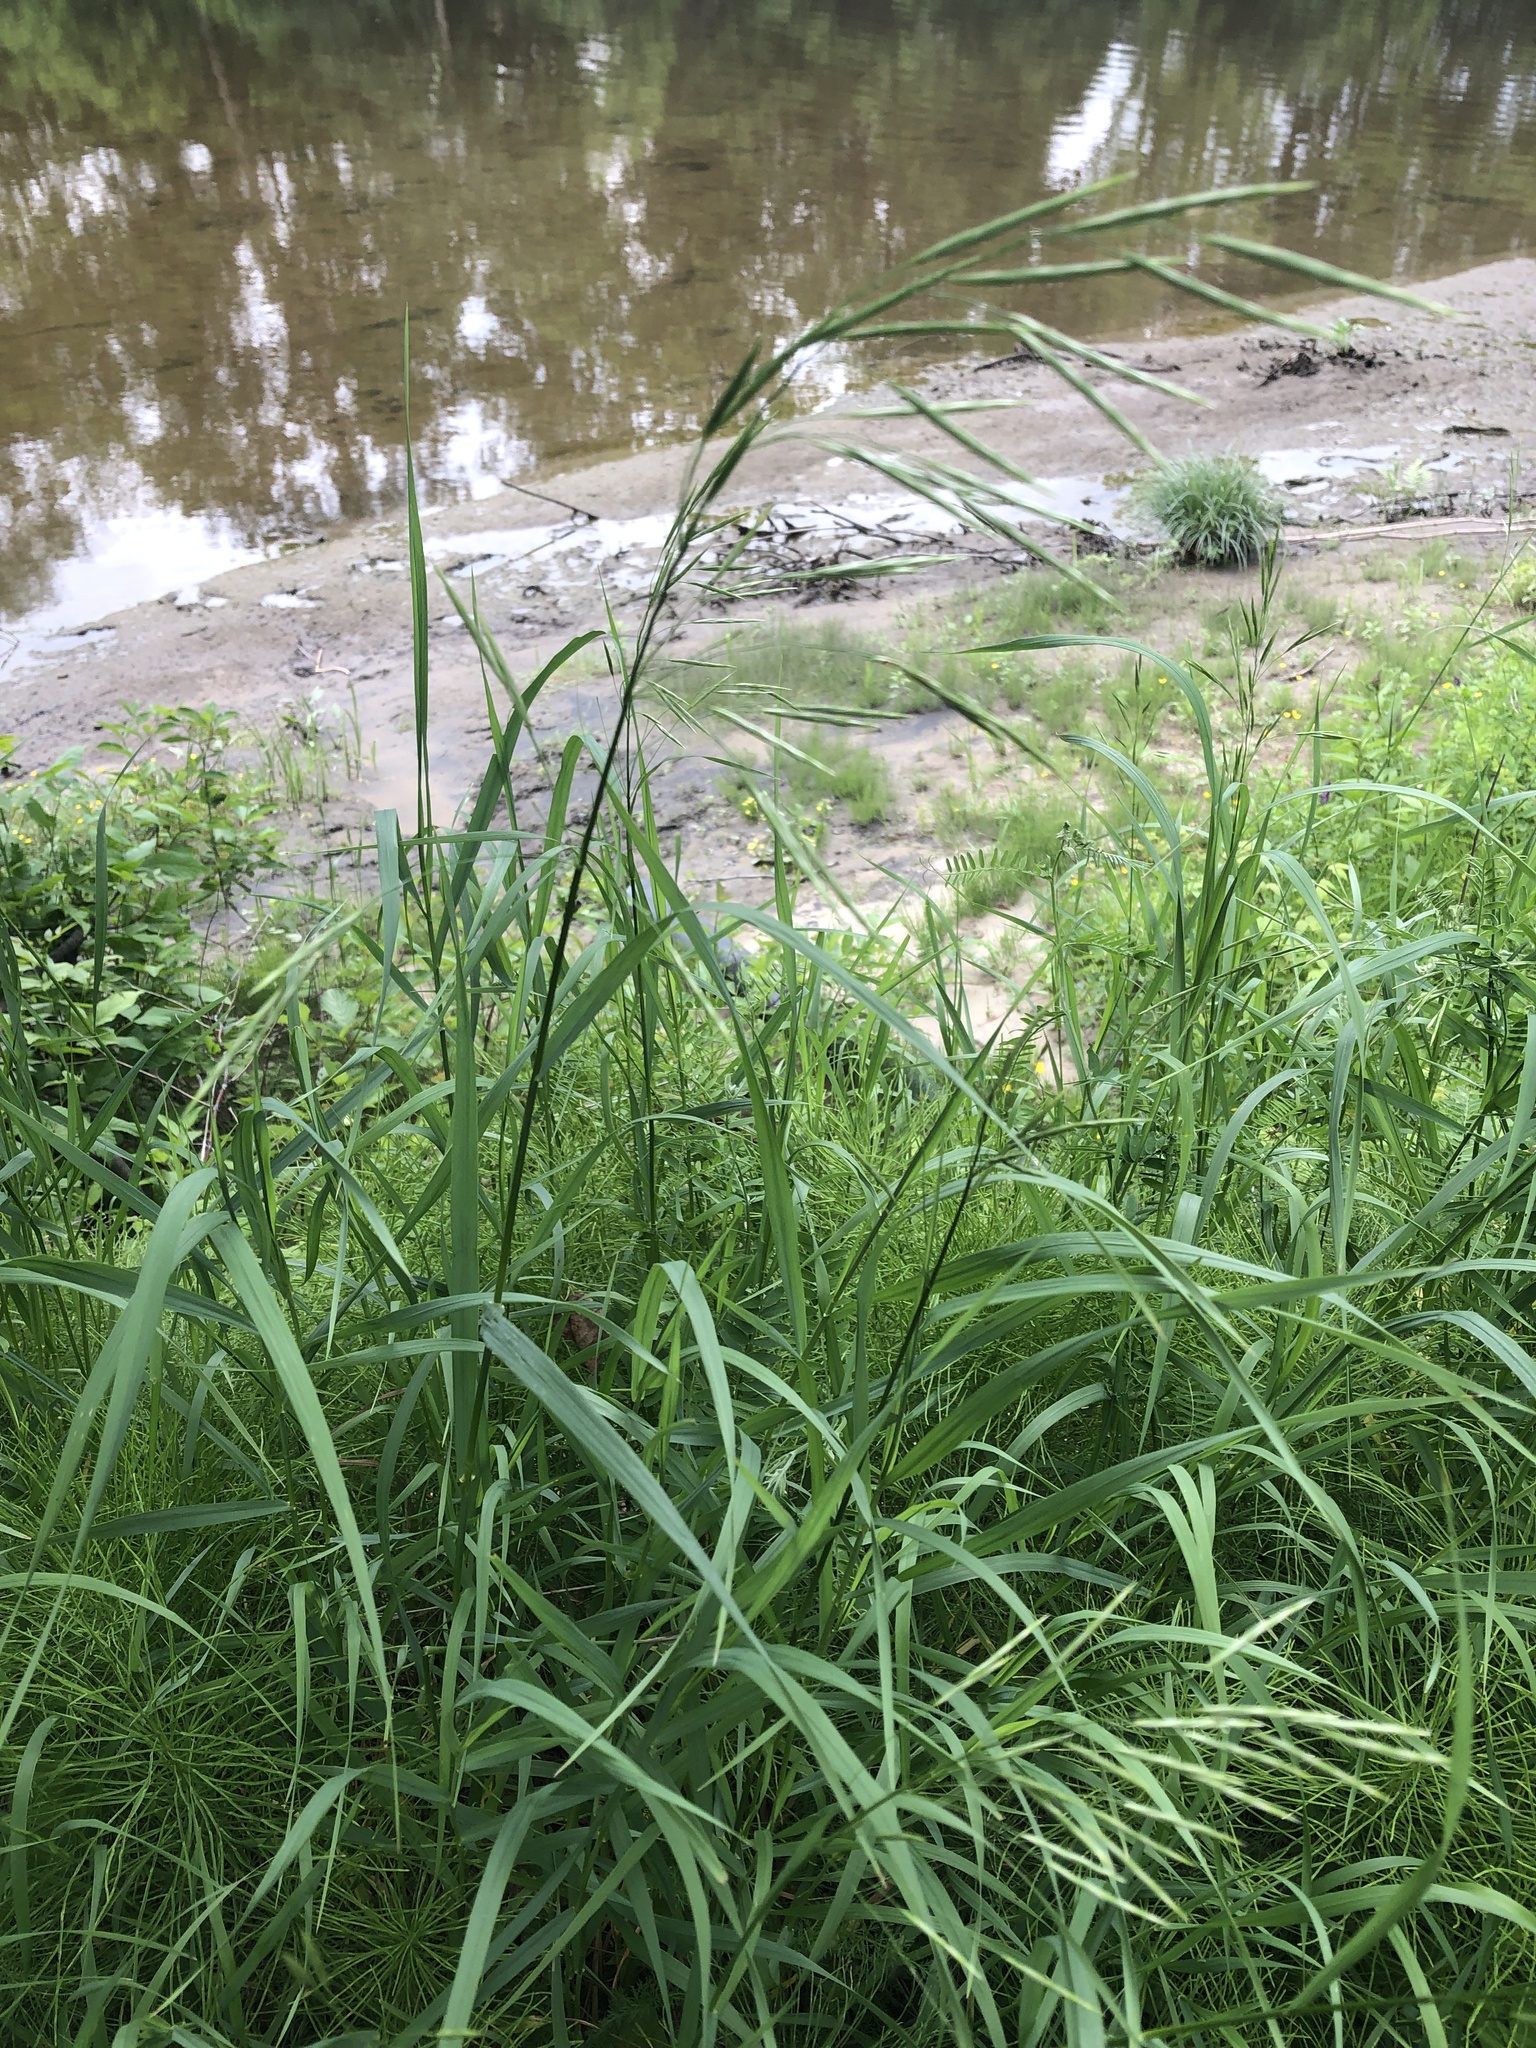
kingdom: Plantae
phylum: Tracheophyta
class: Liliopsida
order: Poales
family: Poaceae
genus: Bromus
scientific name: Bromus inermis
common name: Smooth brome
